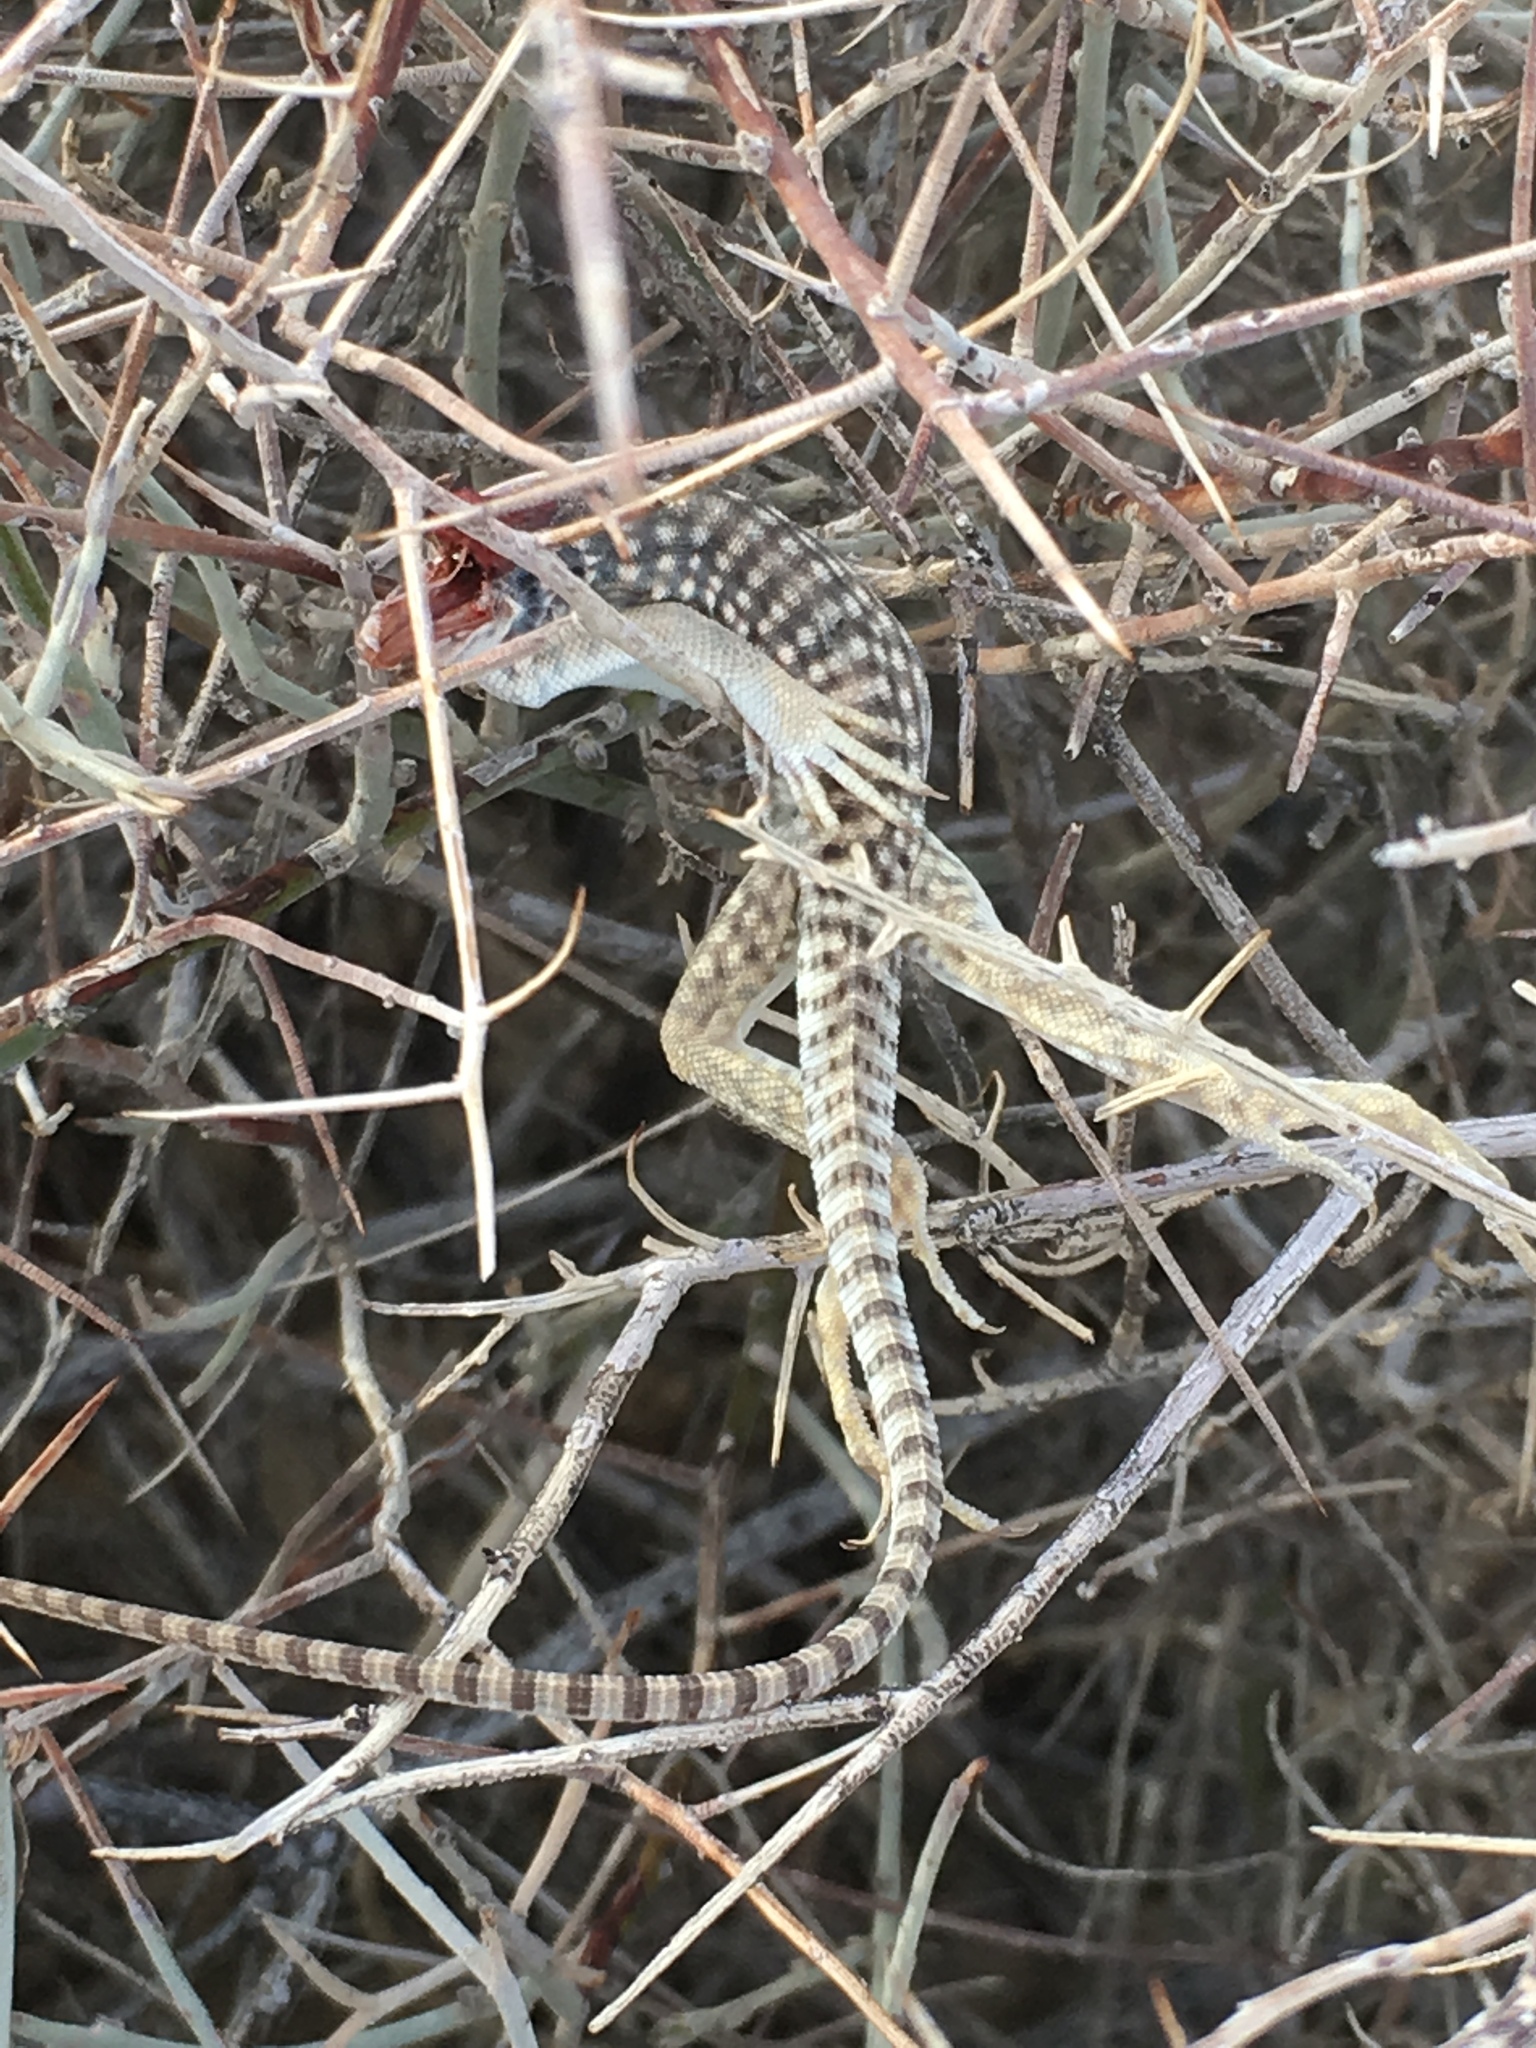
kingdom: Animalia
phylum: Chordata
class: Aves
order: Passeriformes
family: Laniidae
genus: Lanius
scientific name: Lanius ludovicianus
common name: Loggerhead shrike
